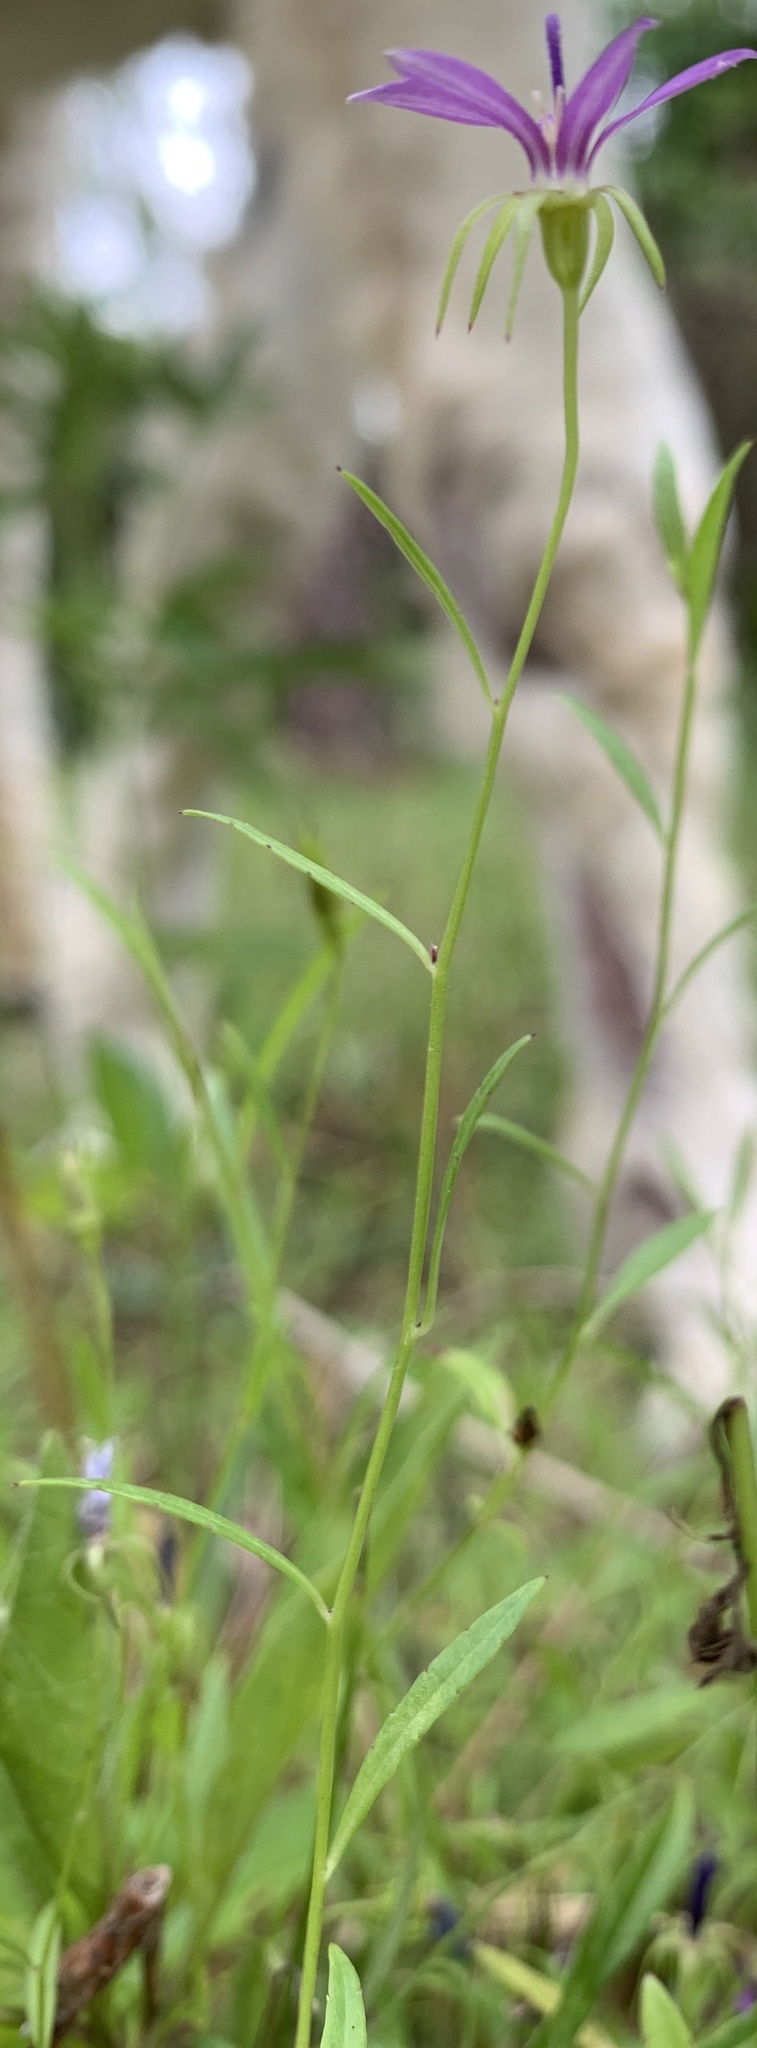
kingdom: Plantae
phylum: Tracheophyta
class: Magnoliopsida
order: Asterales
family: Campanulaceae
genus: Rotanthella
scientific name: Rotanthella floridana
